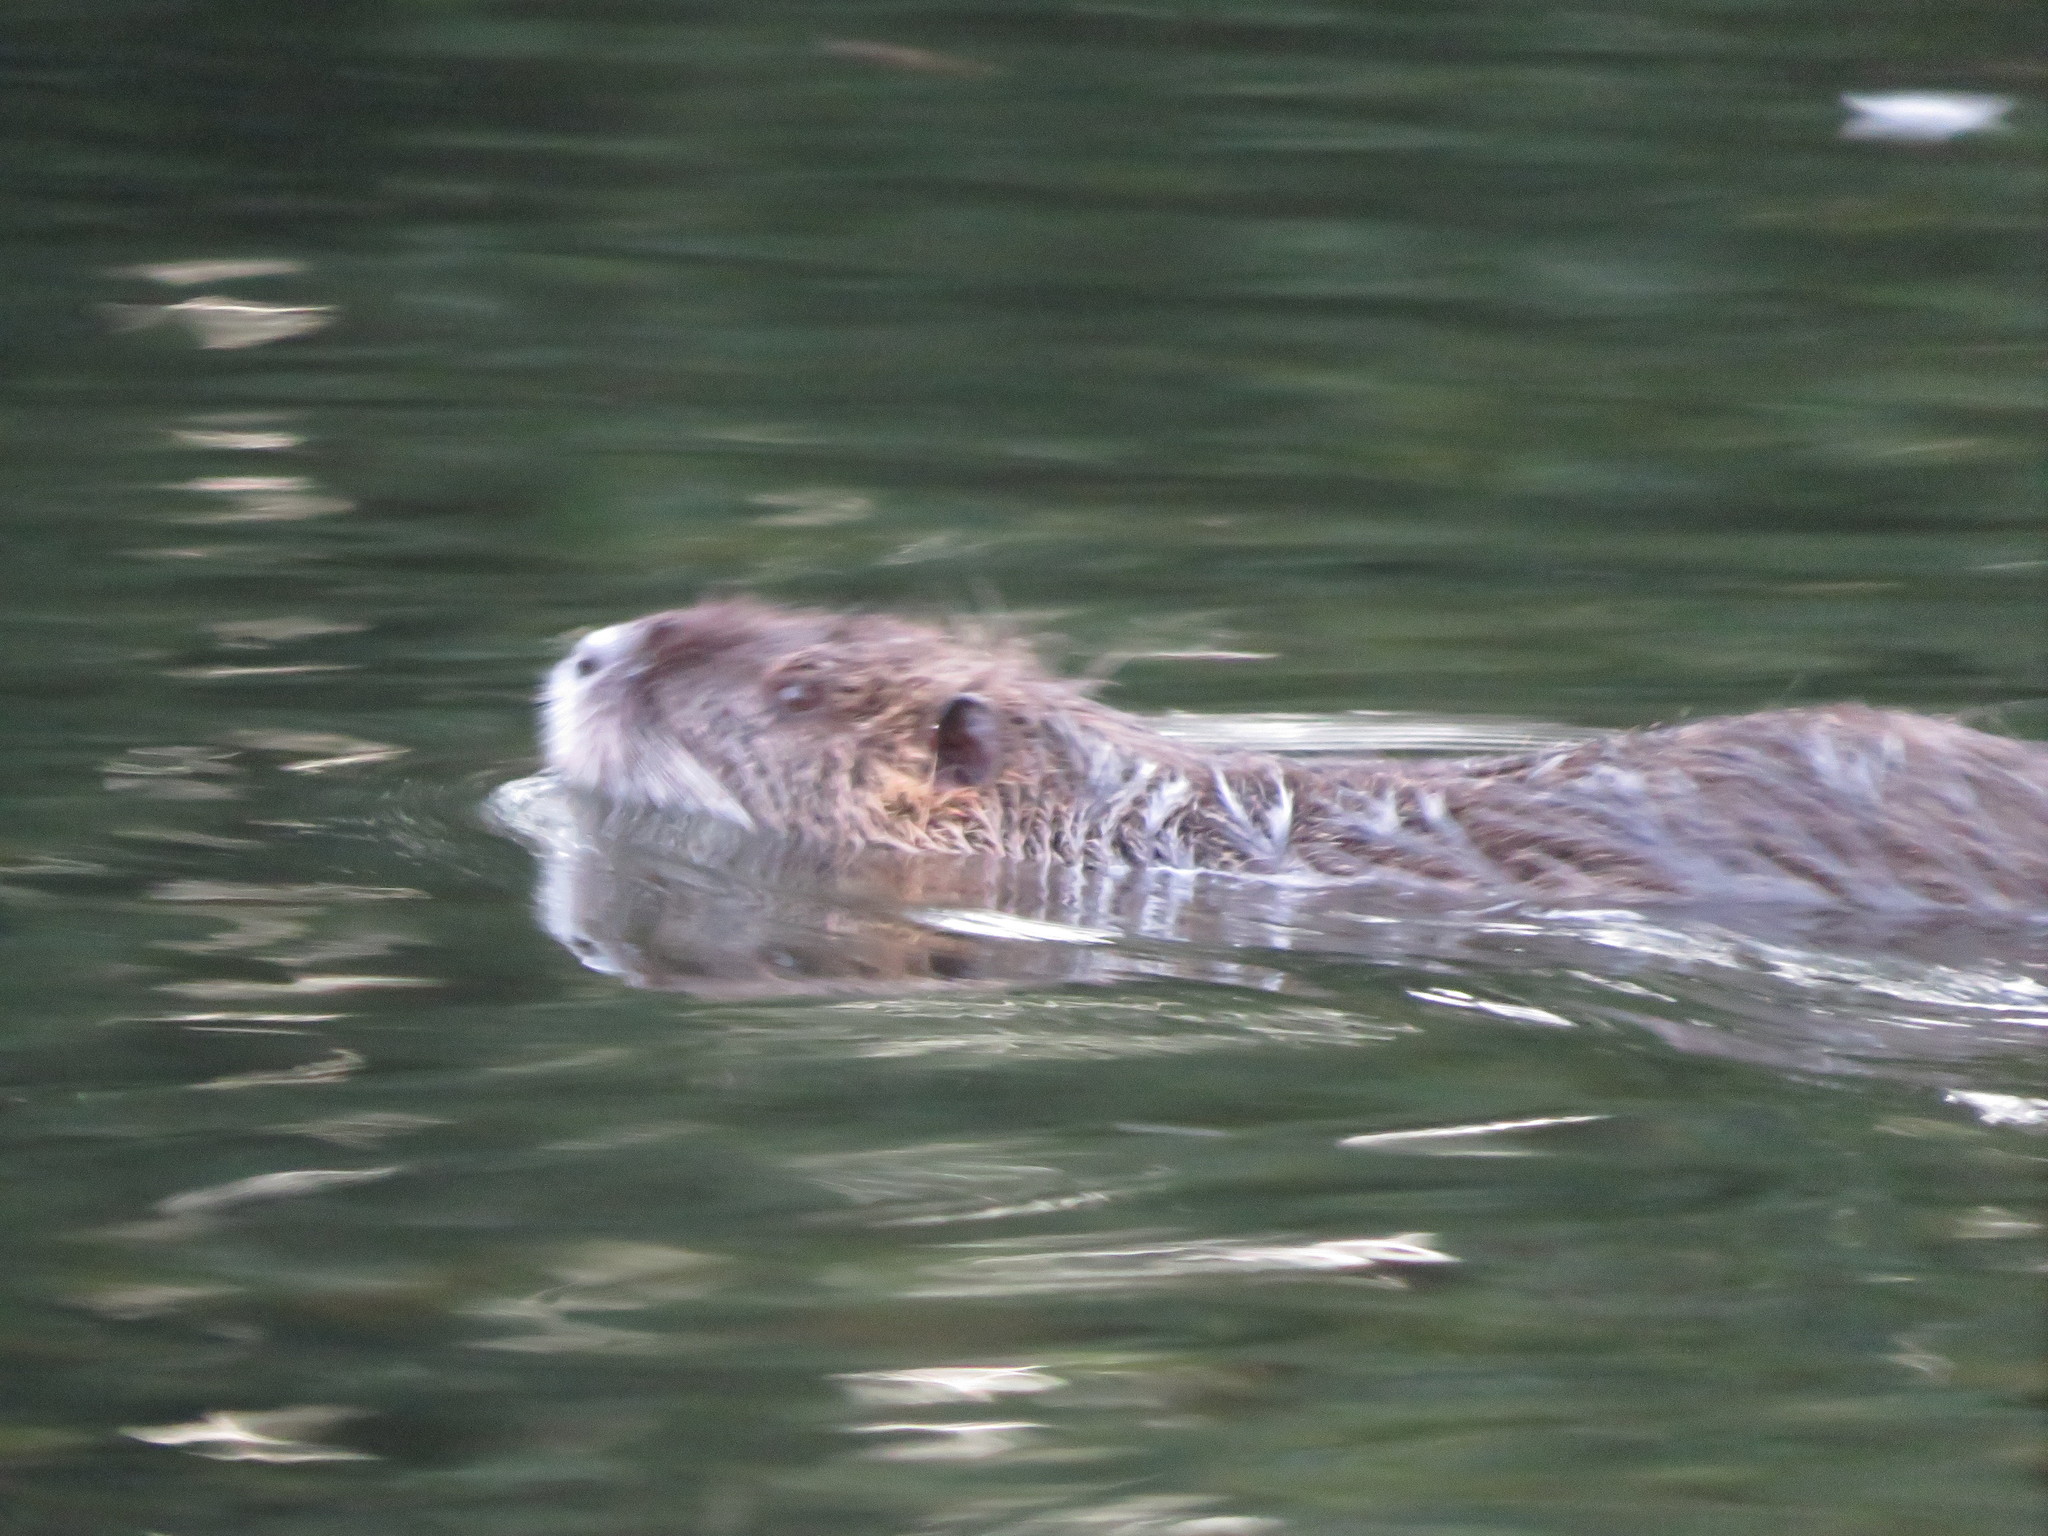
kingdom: Animalia
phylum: Chordata
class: Mammalia
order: Rodentia
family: Myocastoridae
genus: Myocastor
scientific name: Myocastor coypus
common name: Coypu
